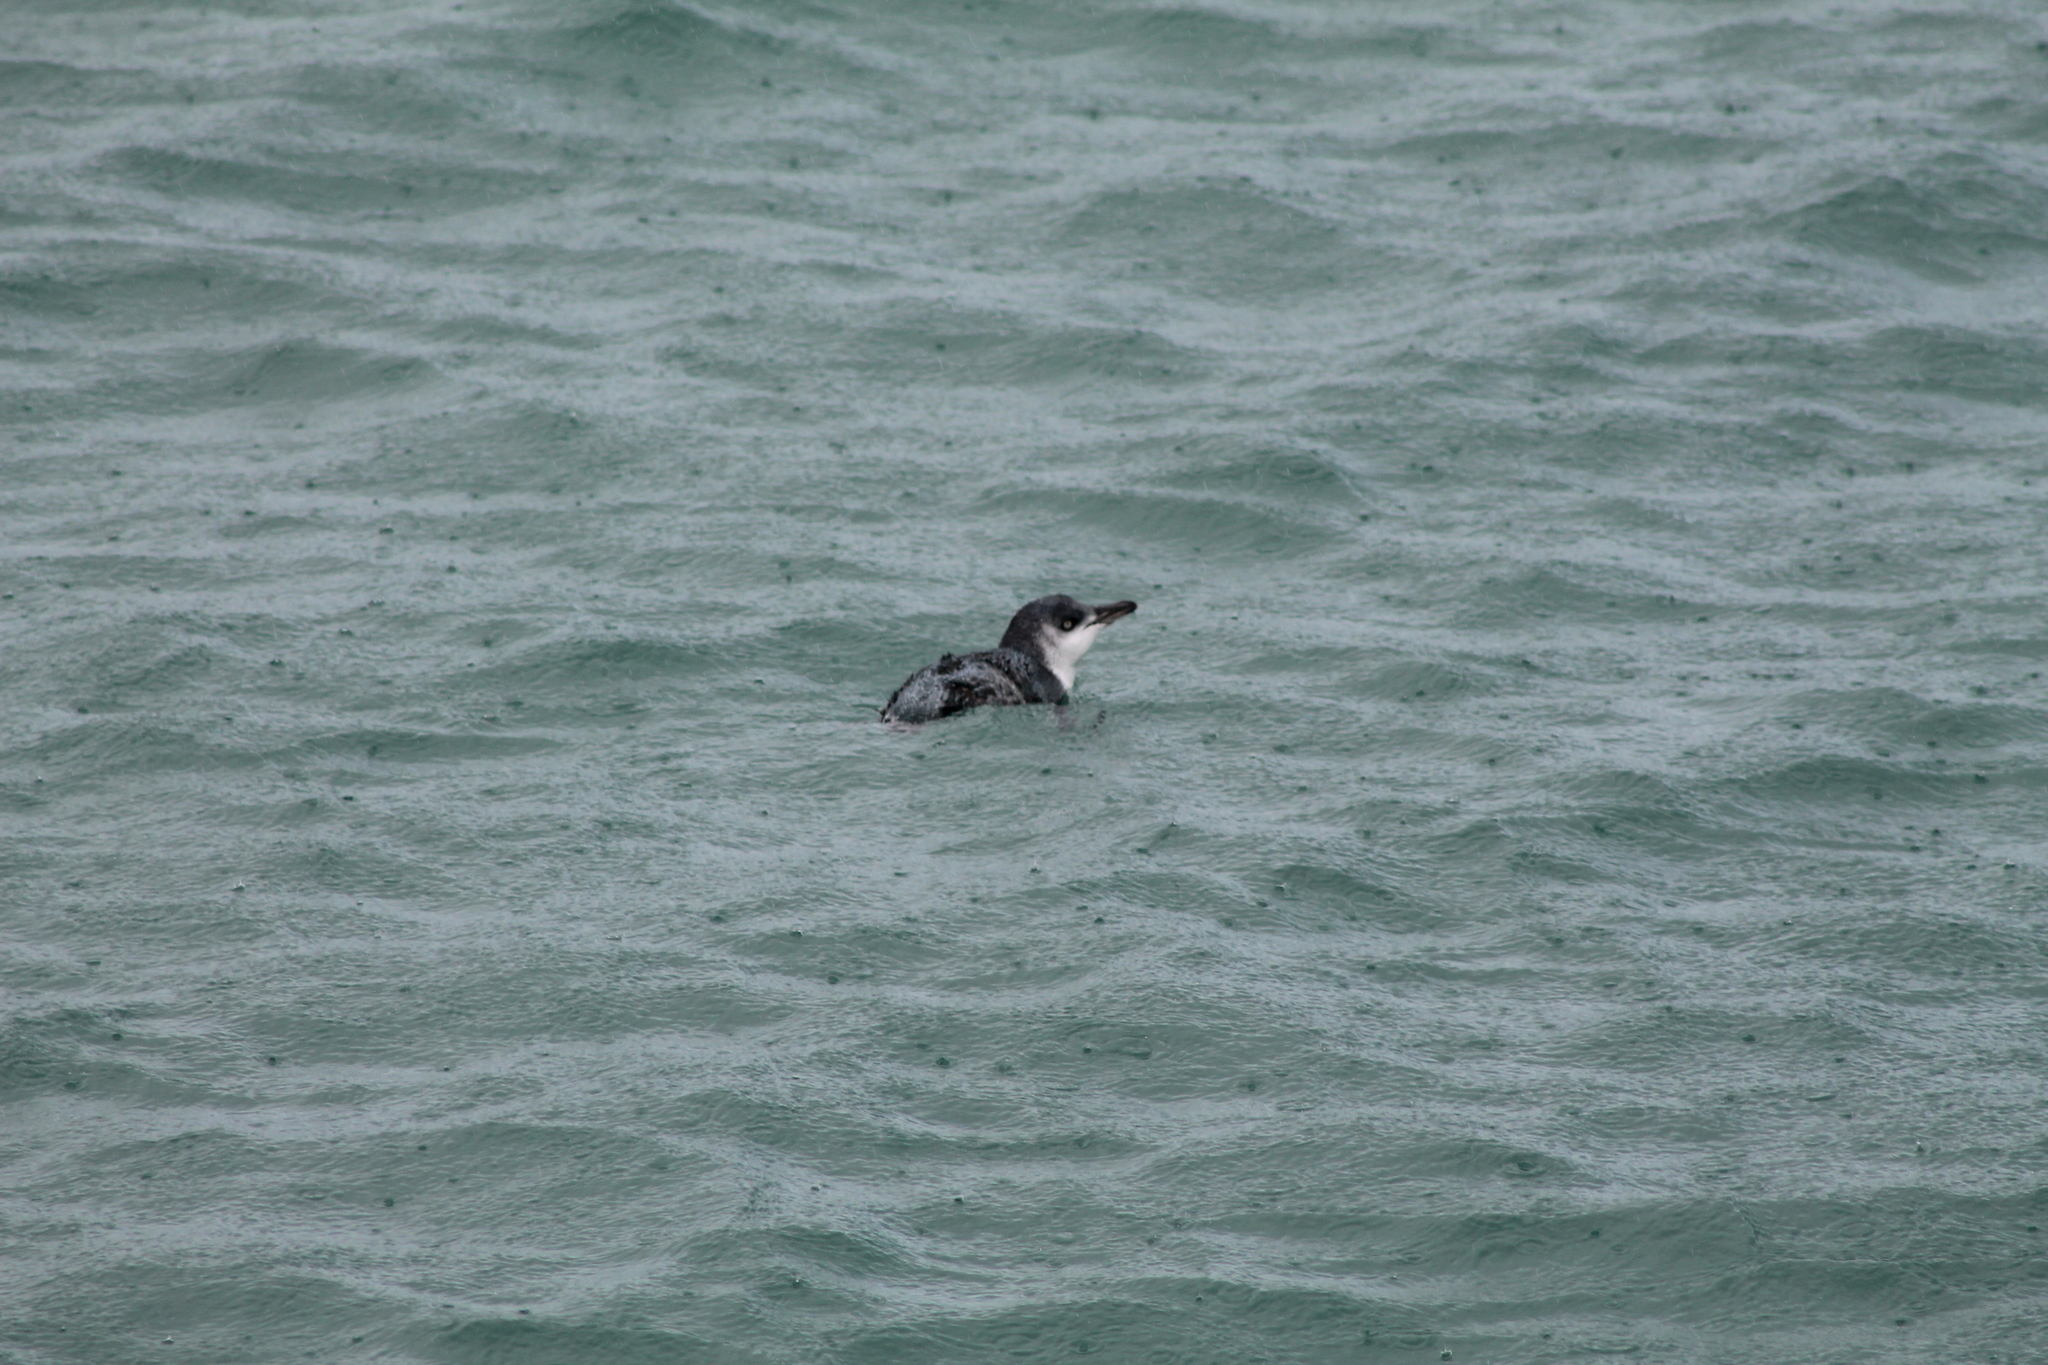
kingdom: Animalia
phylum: Chordata
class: Aves
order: Sphenisciformes
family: Spheniscidae
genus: Eudyptula
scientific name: Eudyptula minor
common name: Little penguin
